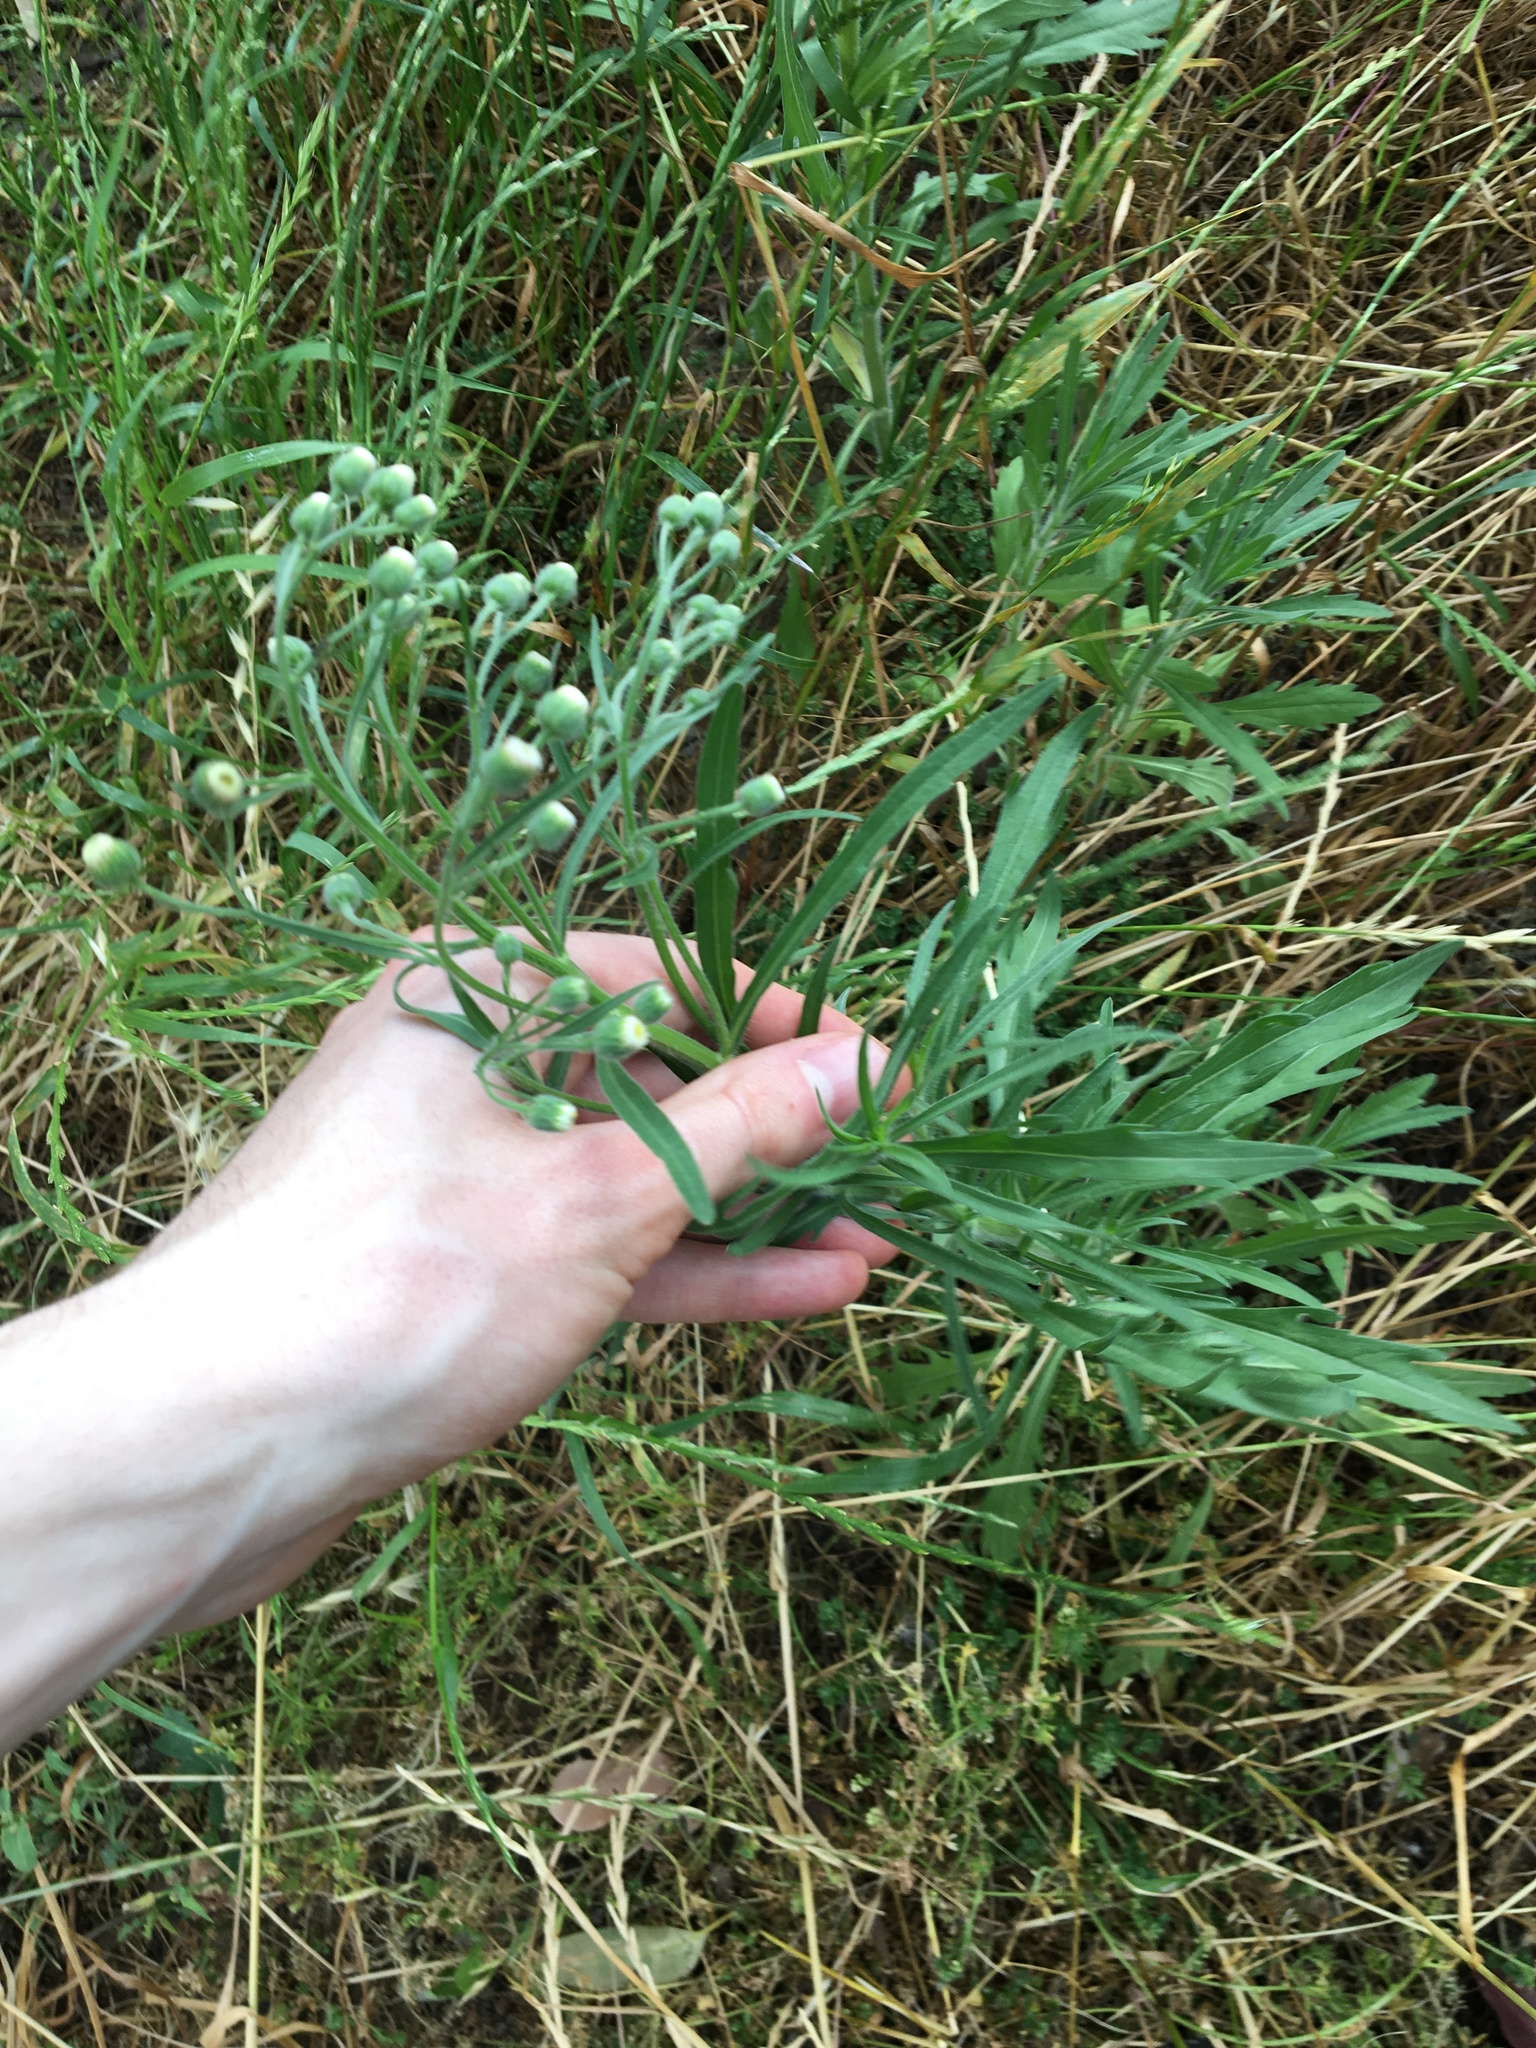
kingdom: Plantae
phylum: Tracheophyta
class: Magnoliopsida
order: Asterales
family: Asteraceae
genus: Erigeron
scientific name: Erigeron bonariensis
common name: Argentine fleabane
